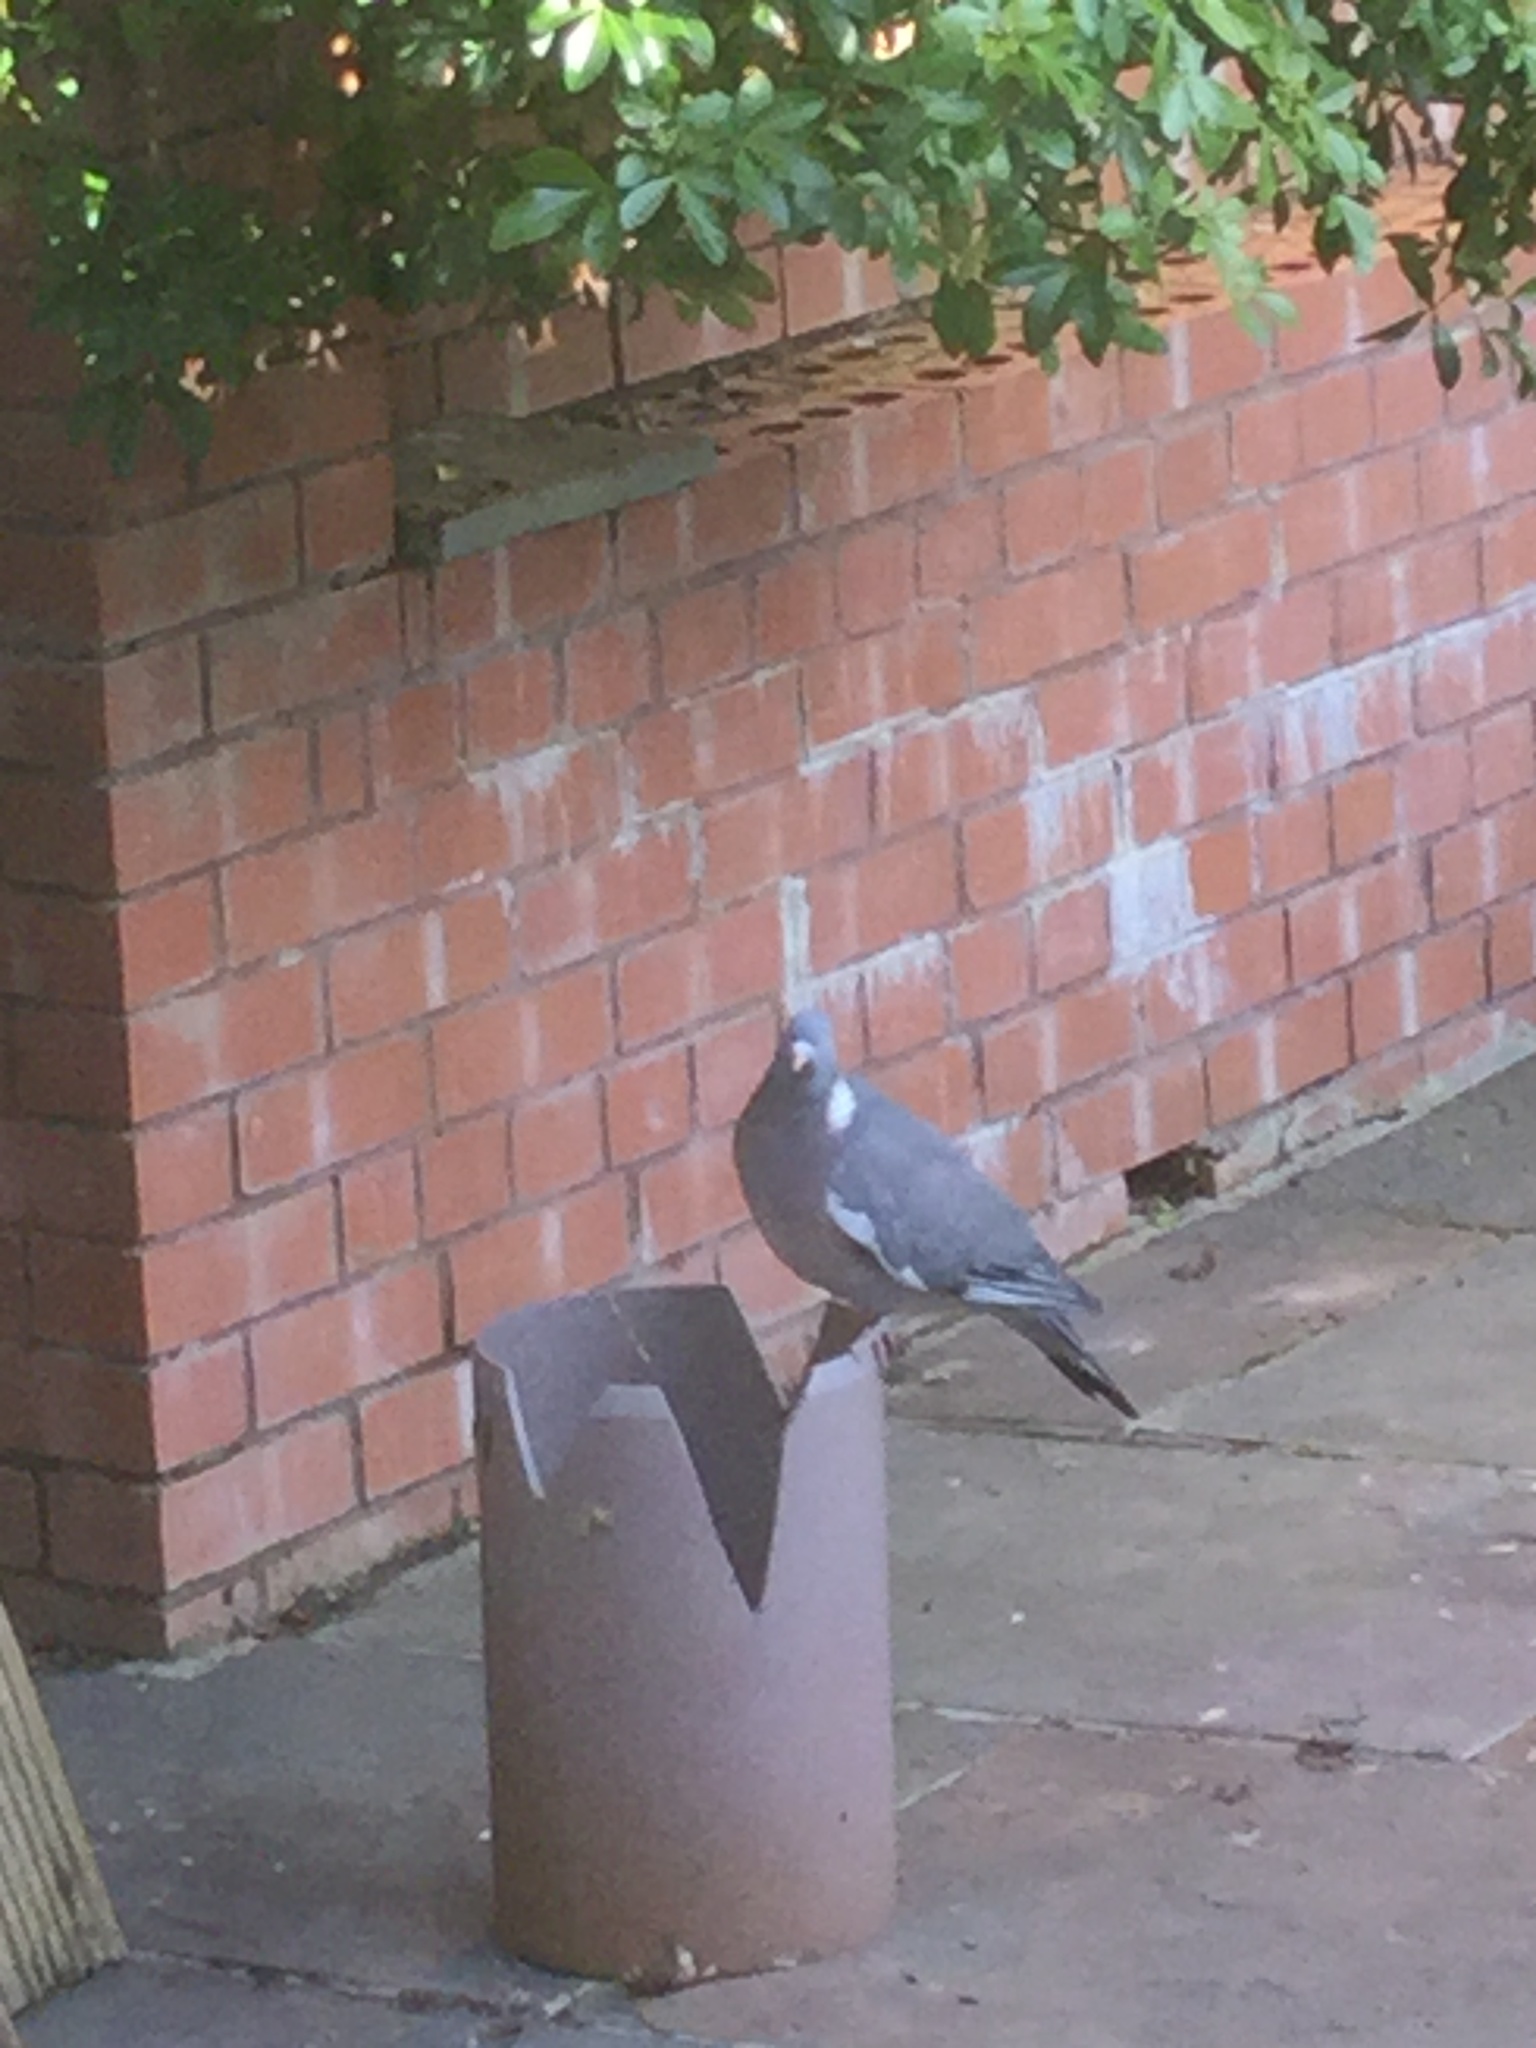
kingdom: Animalia
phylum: Chordata
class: Aves
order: Columbiformes
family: Columbidae
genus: Columba
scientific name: Columba palumbus
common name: Common wood pigeon
